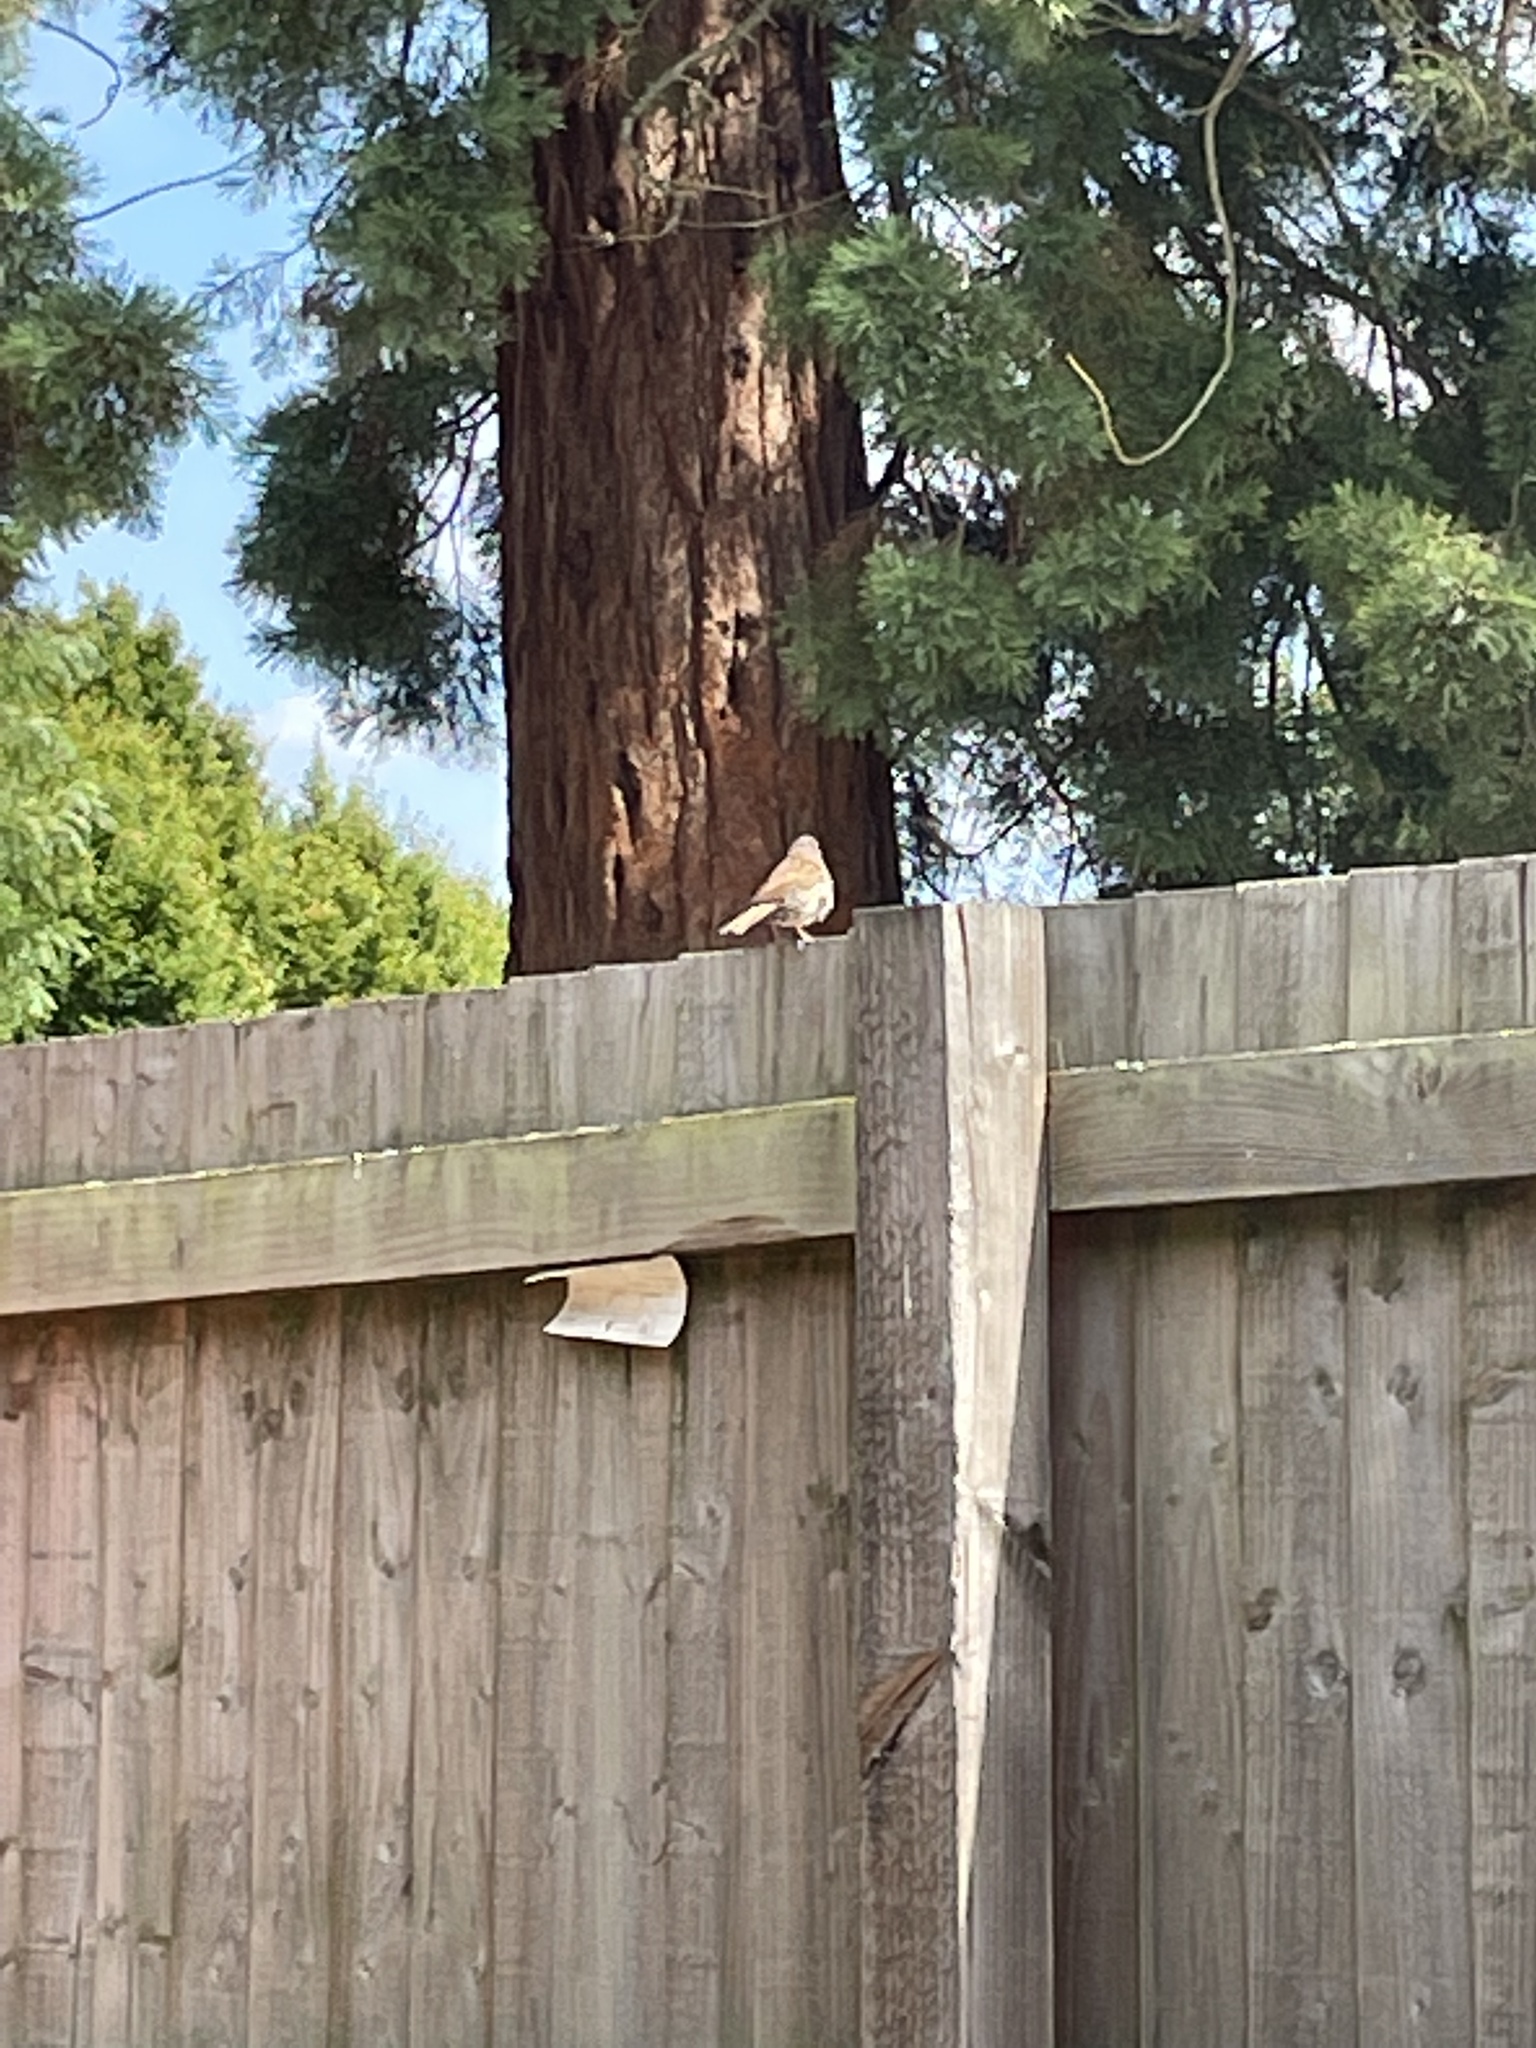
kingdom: Animalia
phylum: Chordata
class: Aves
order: Passeriformes
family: Prunellidae
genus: Prunella
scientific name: Prunella modularis
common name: Dunnock
